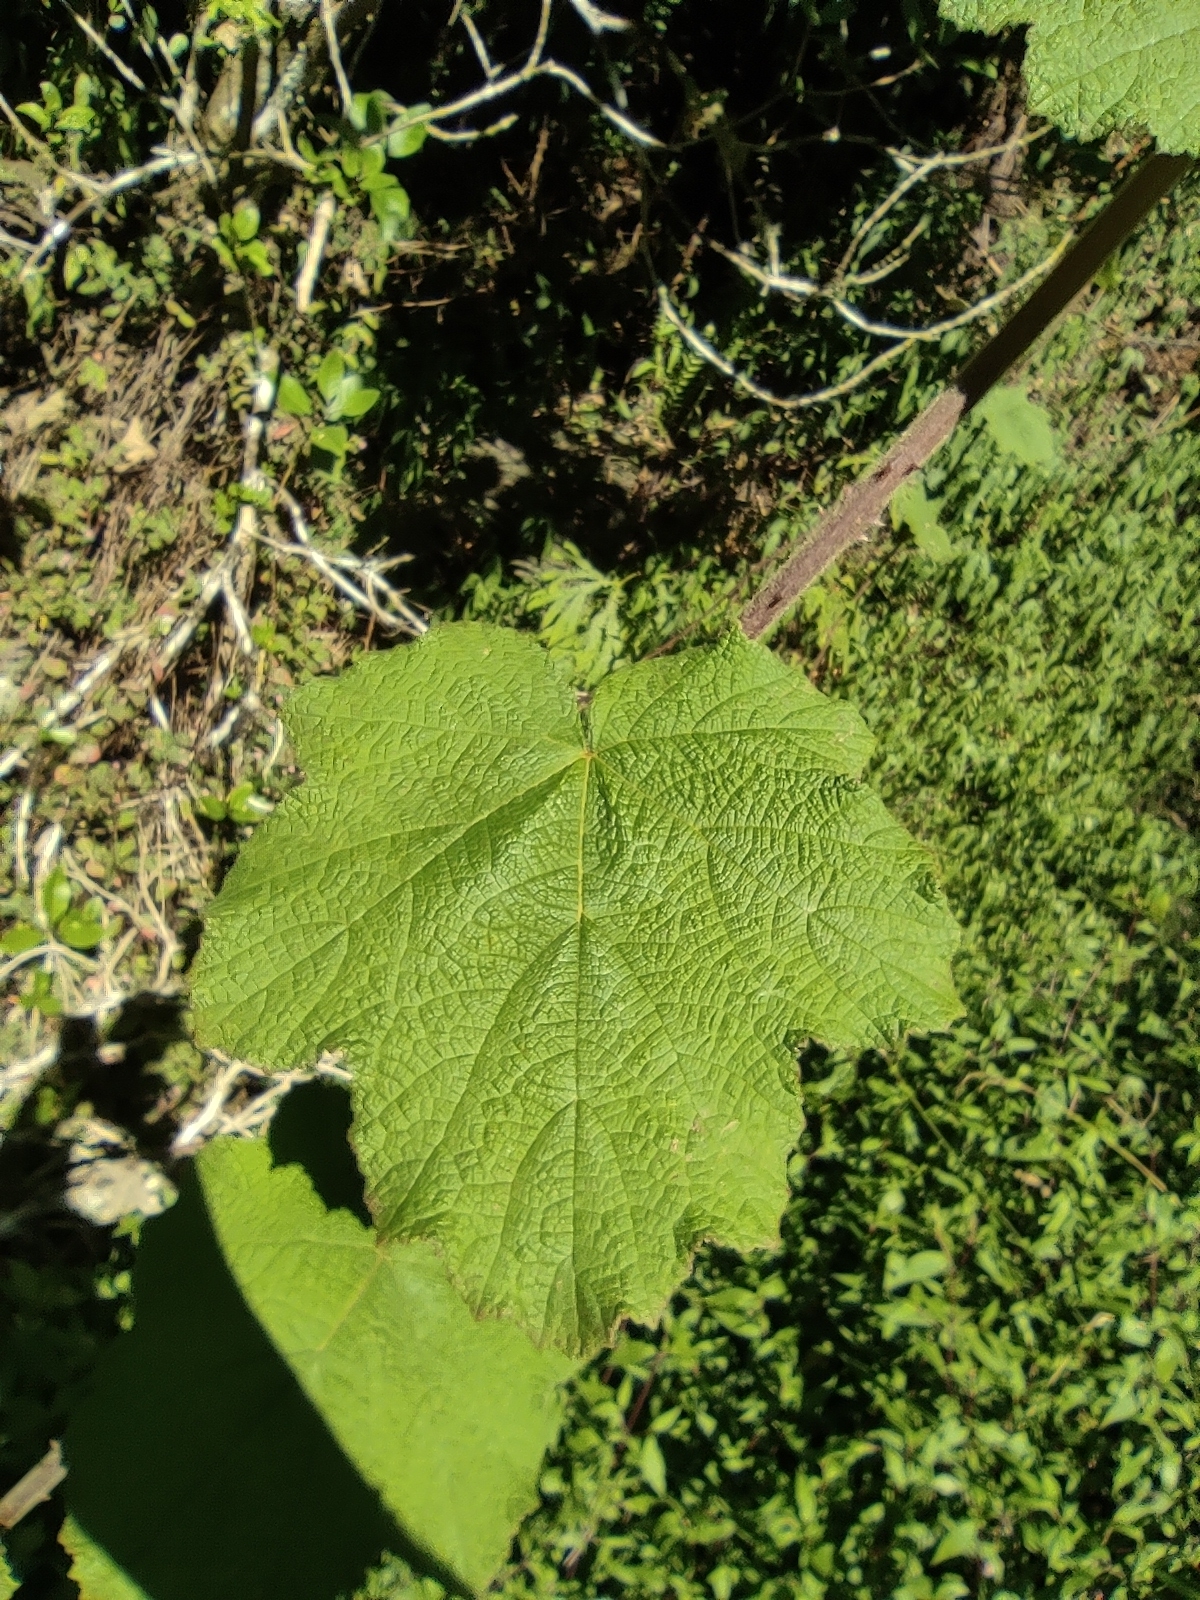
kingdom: Plantae
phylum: Tracheophyta
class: Magnoliopsida
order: Rosales
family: Rosaceae
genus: Rubus
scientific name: Rubus alceifolius
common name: Giant bramble
